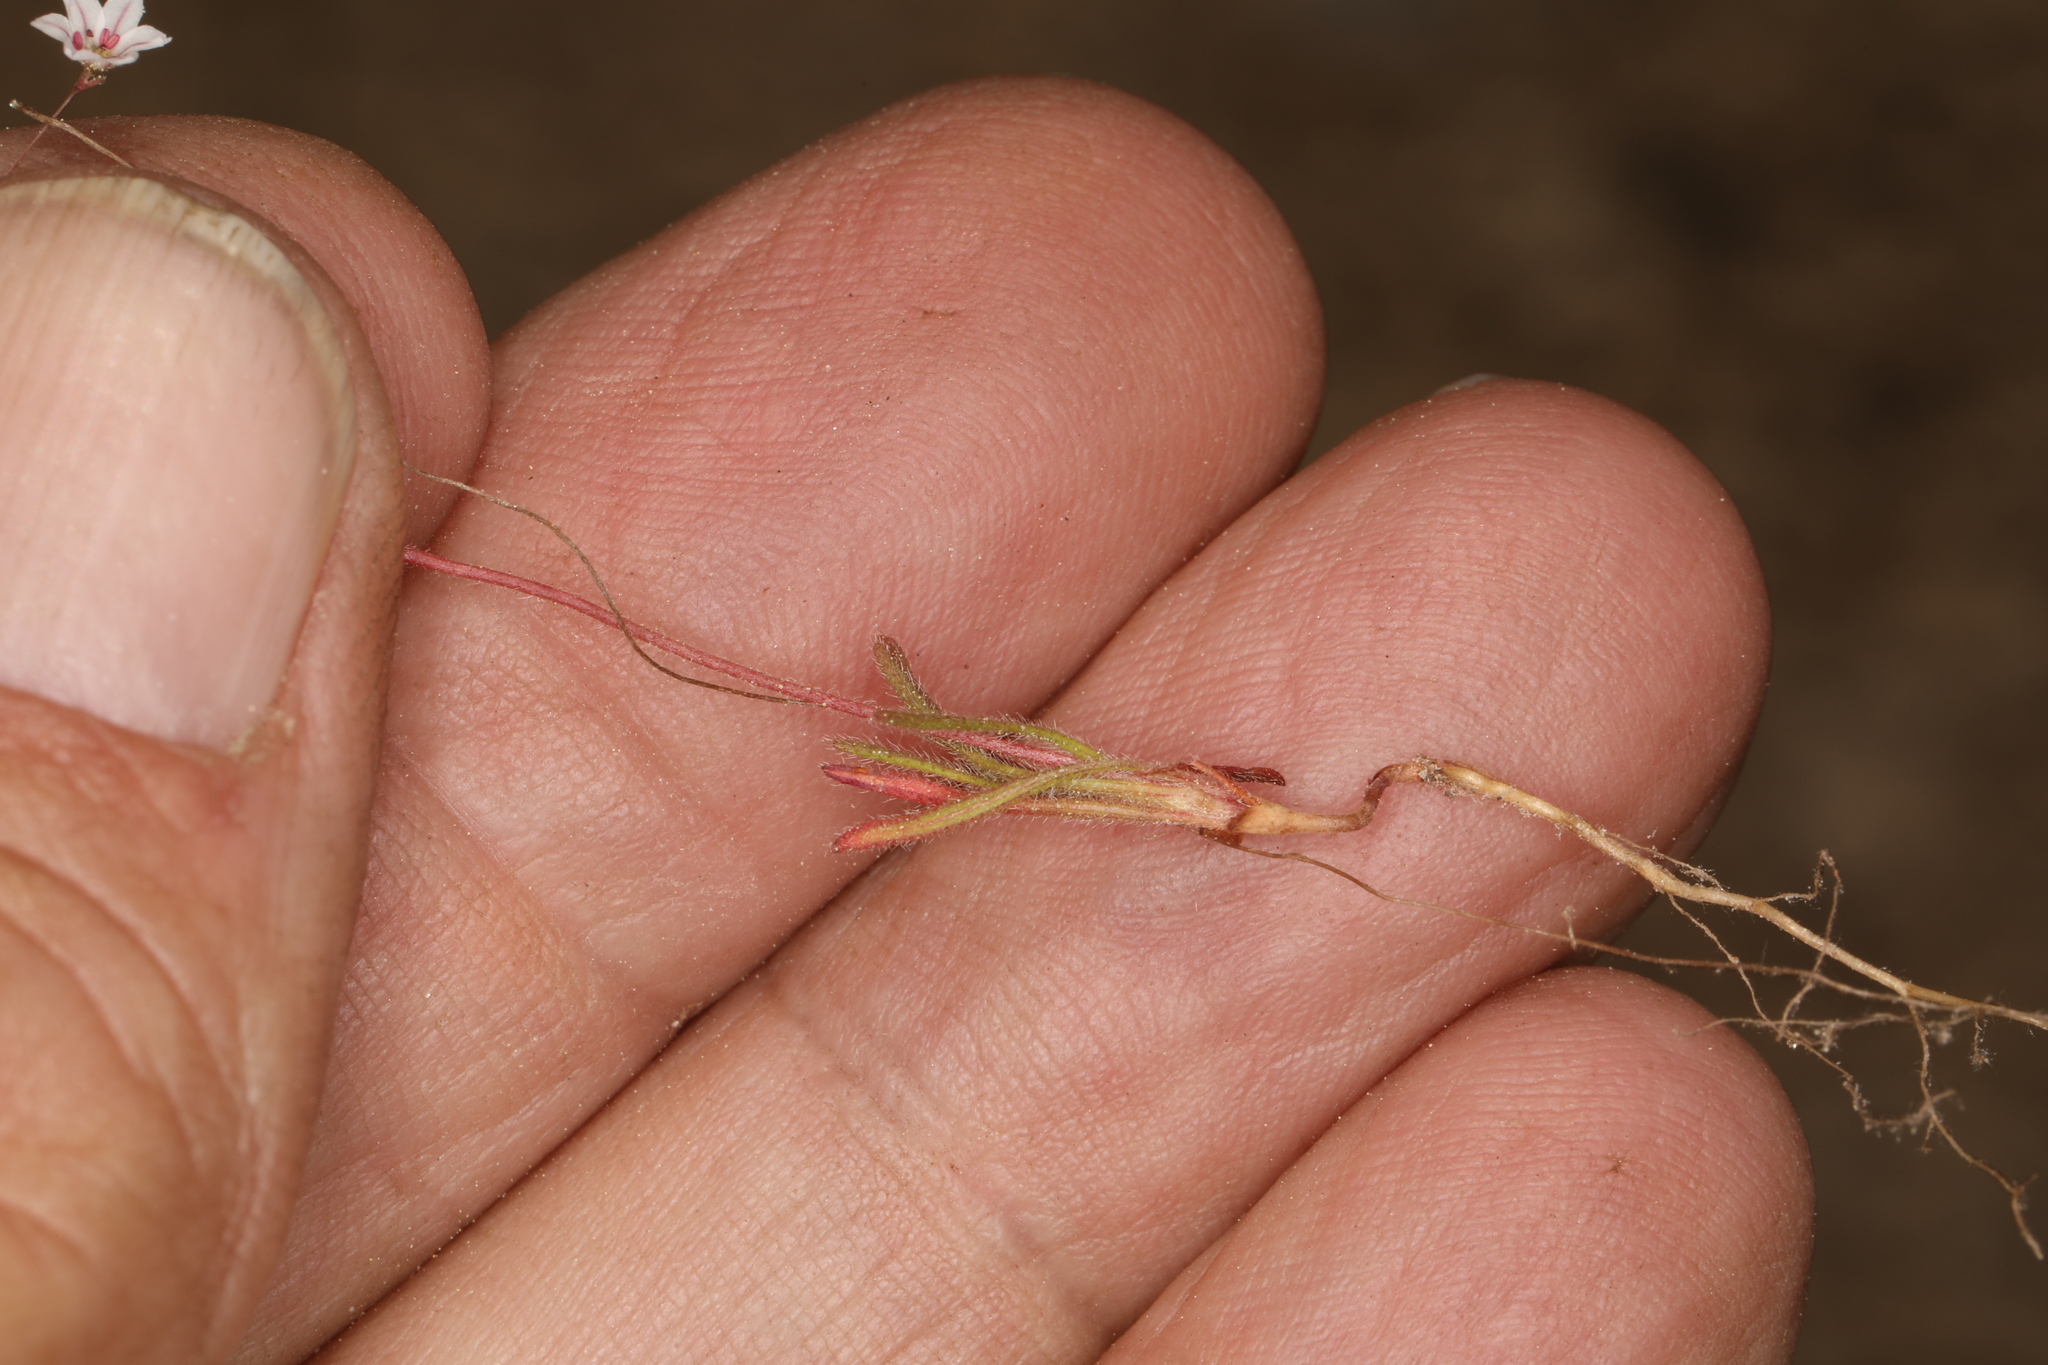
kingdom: Plantae
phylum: Tracheophyta
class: Magnoliopsida
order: Caryophyllales
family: Polygonaceae
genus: Eriogonum
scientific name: Eriogonum spergulinum
